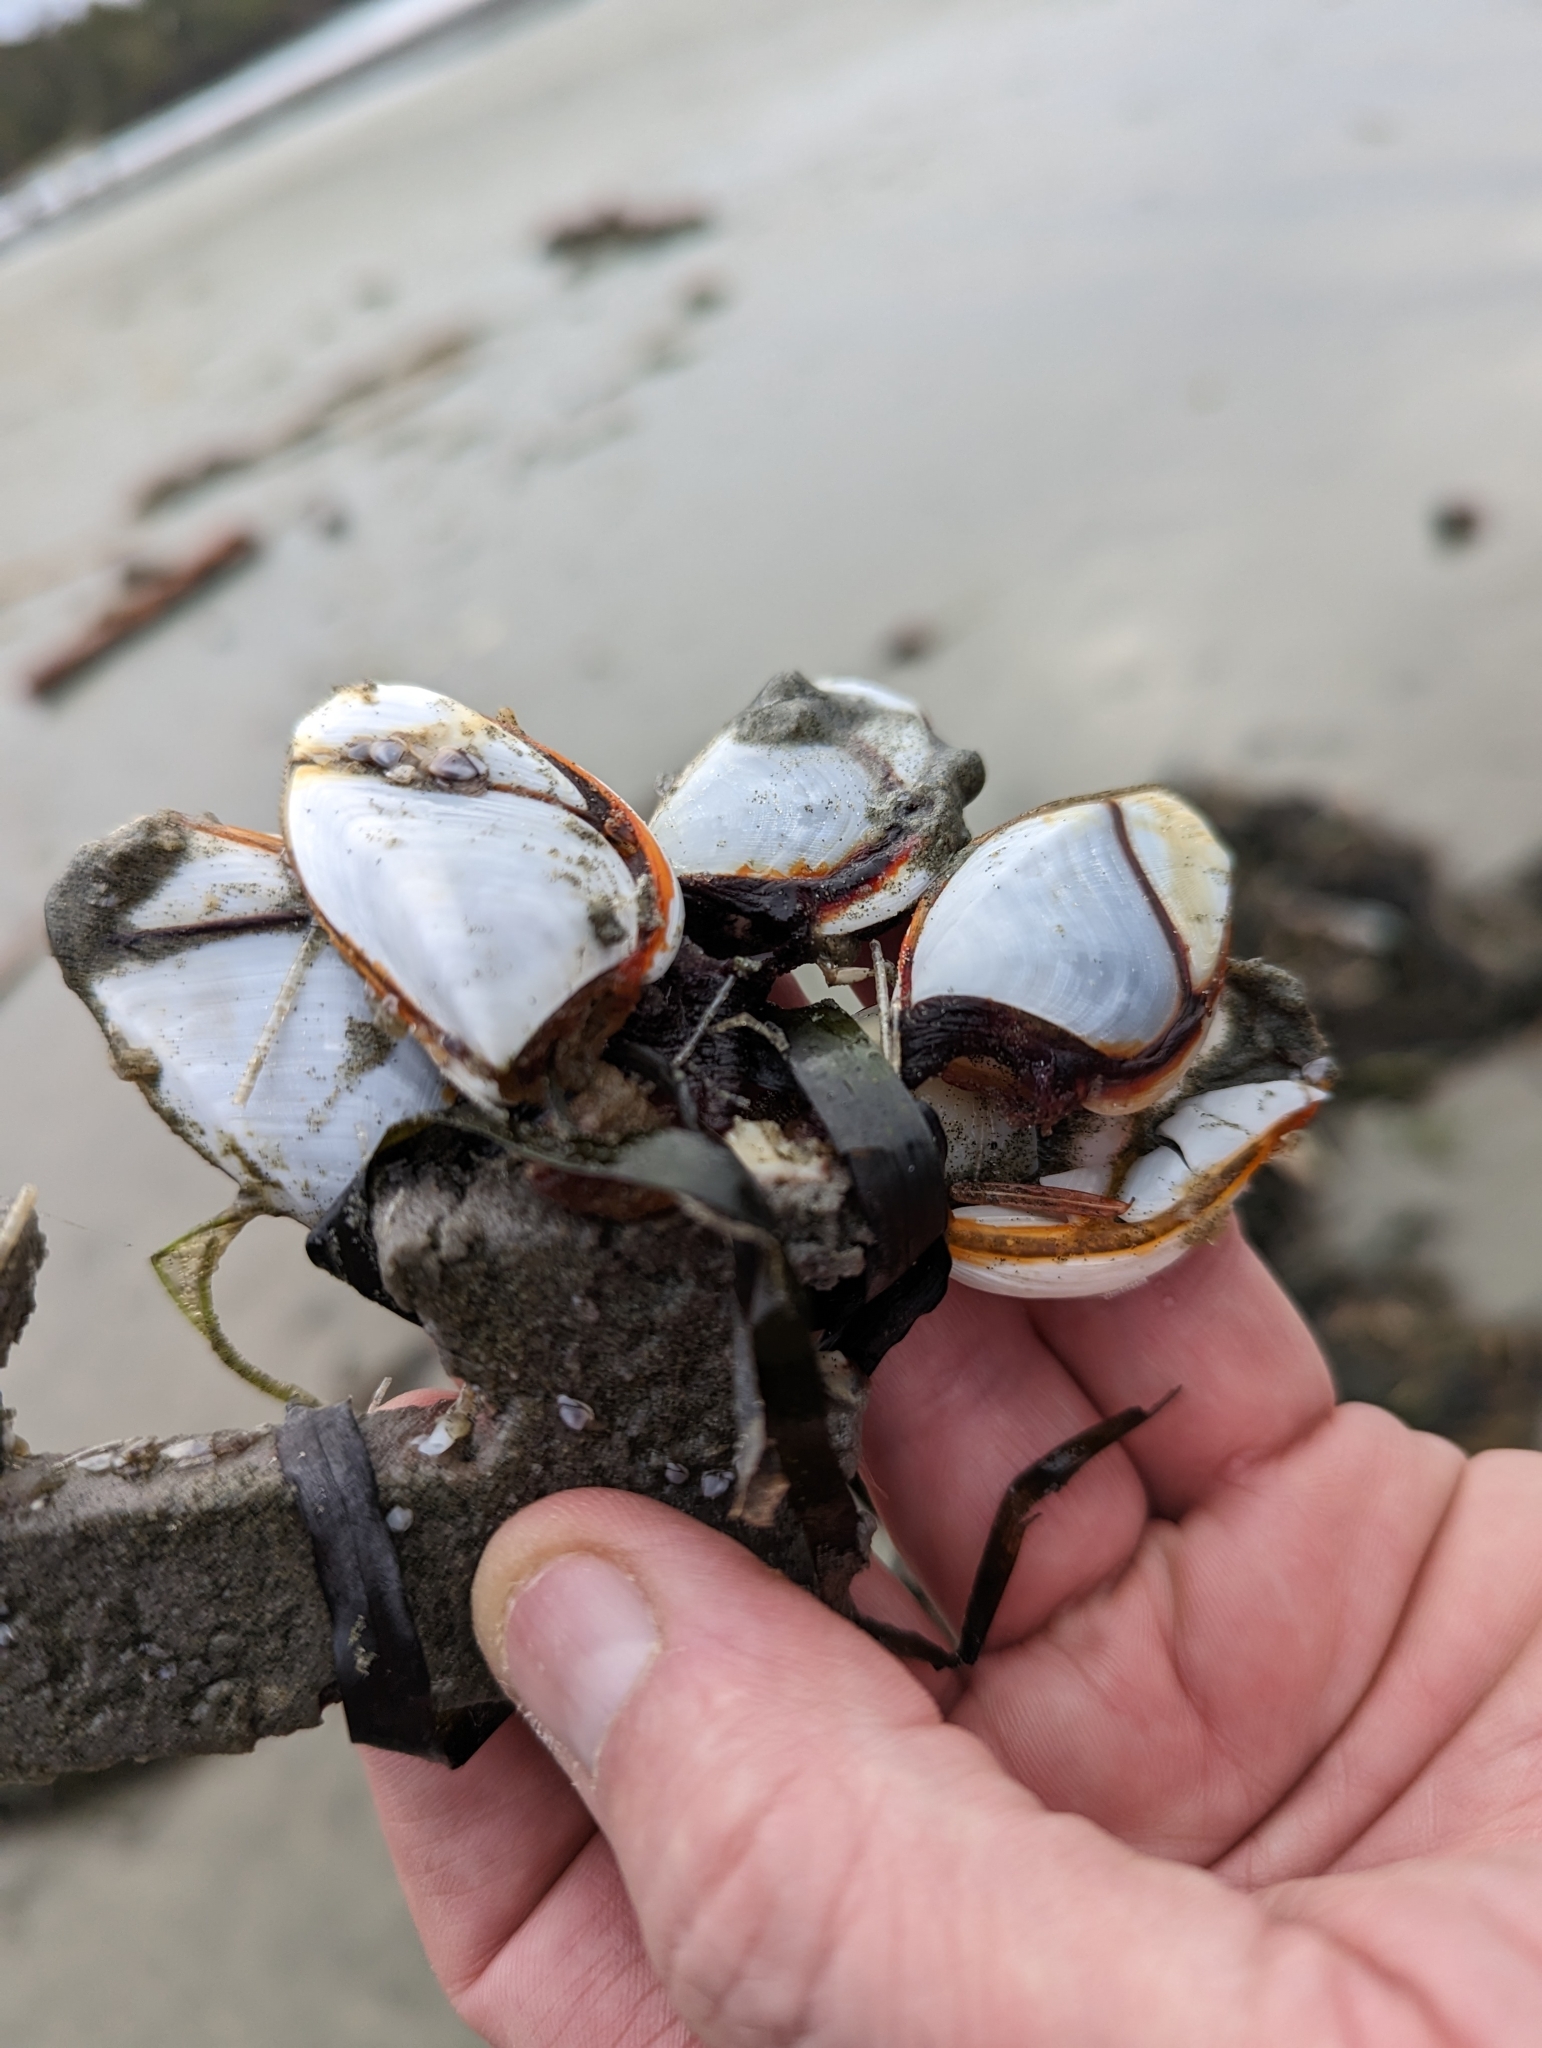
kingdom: Animalia
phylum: Arthropoda
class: Maxillopoda
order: Pedunculata
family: Lepadidae
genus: Lepas
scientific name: Lepas anatifera
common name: Common goose barnacle
